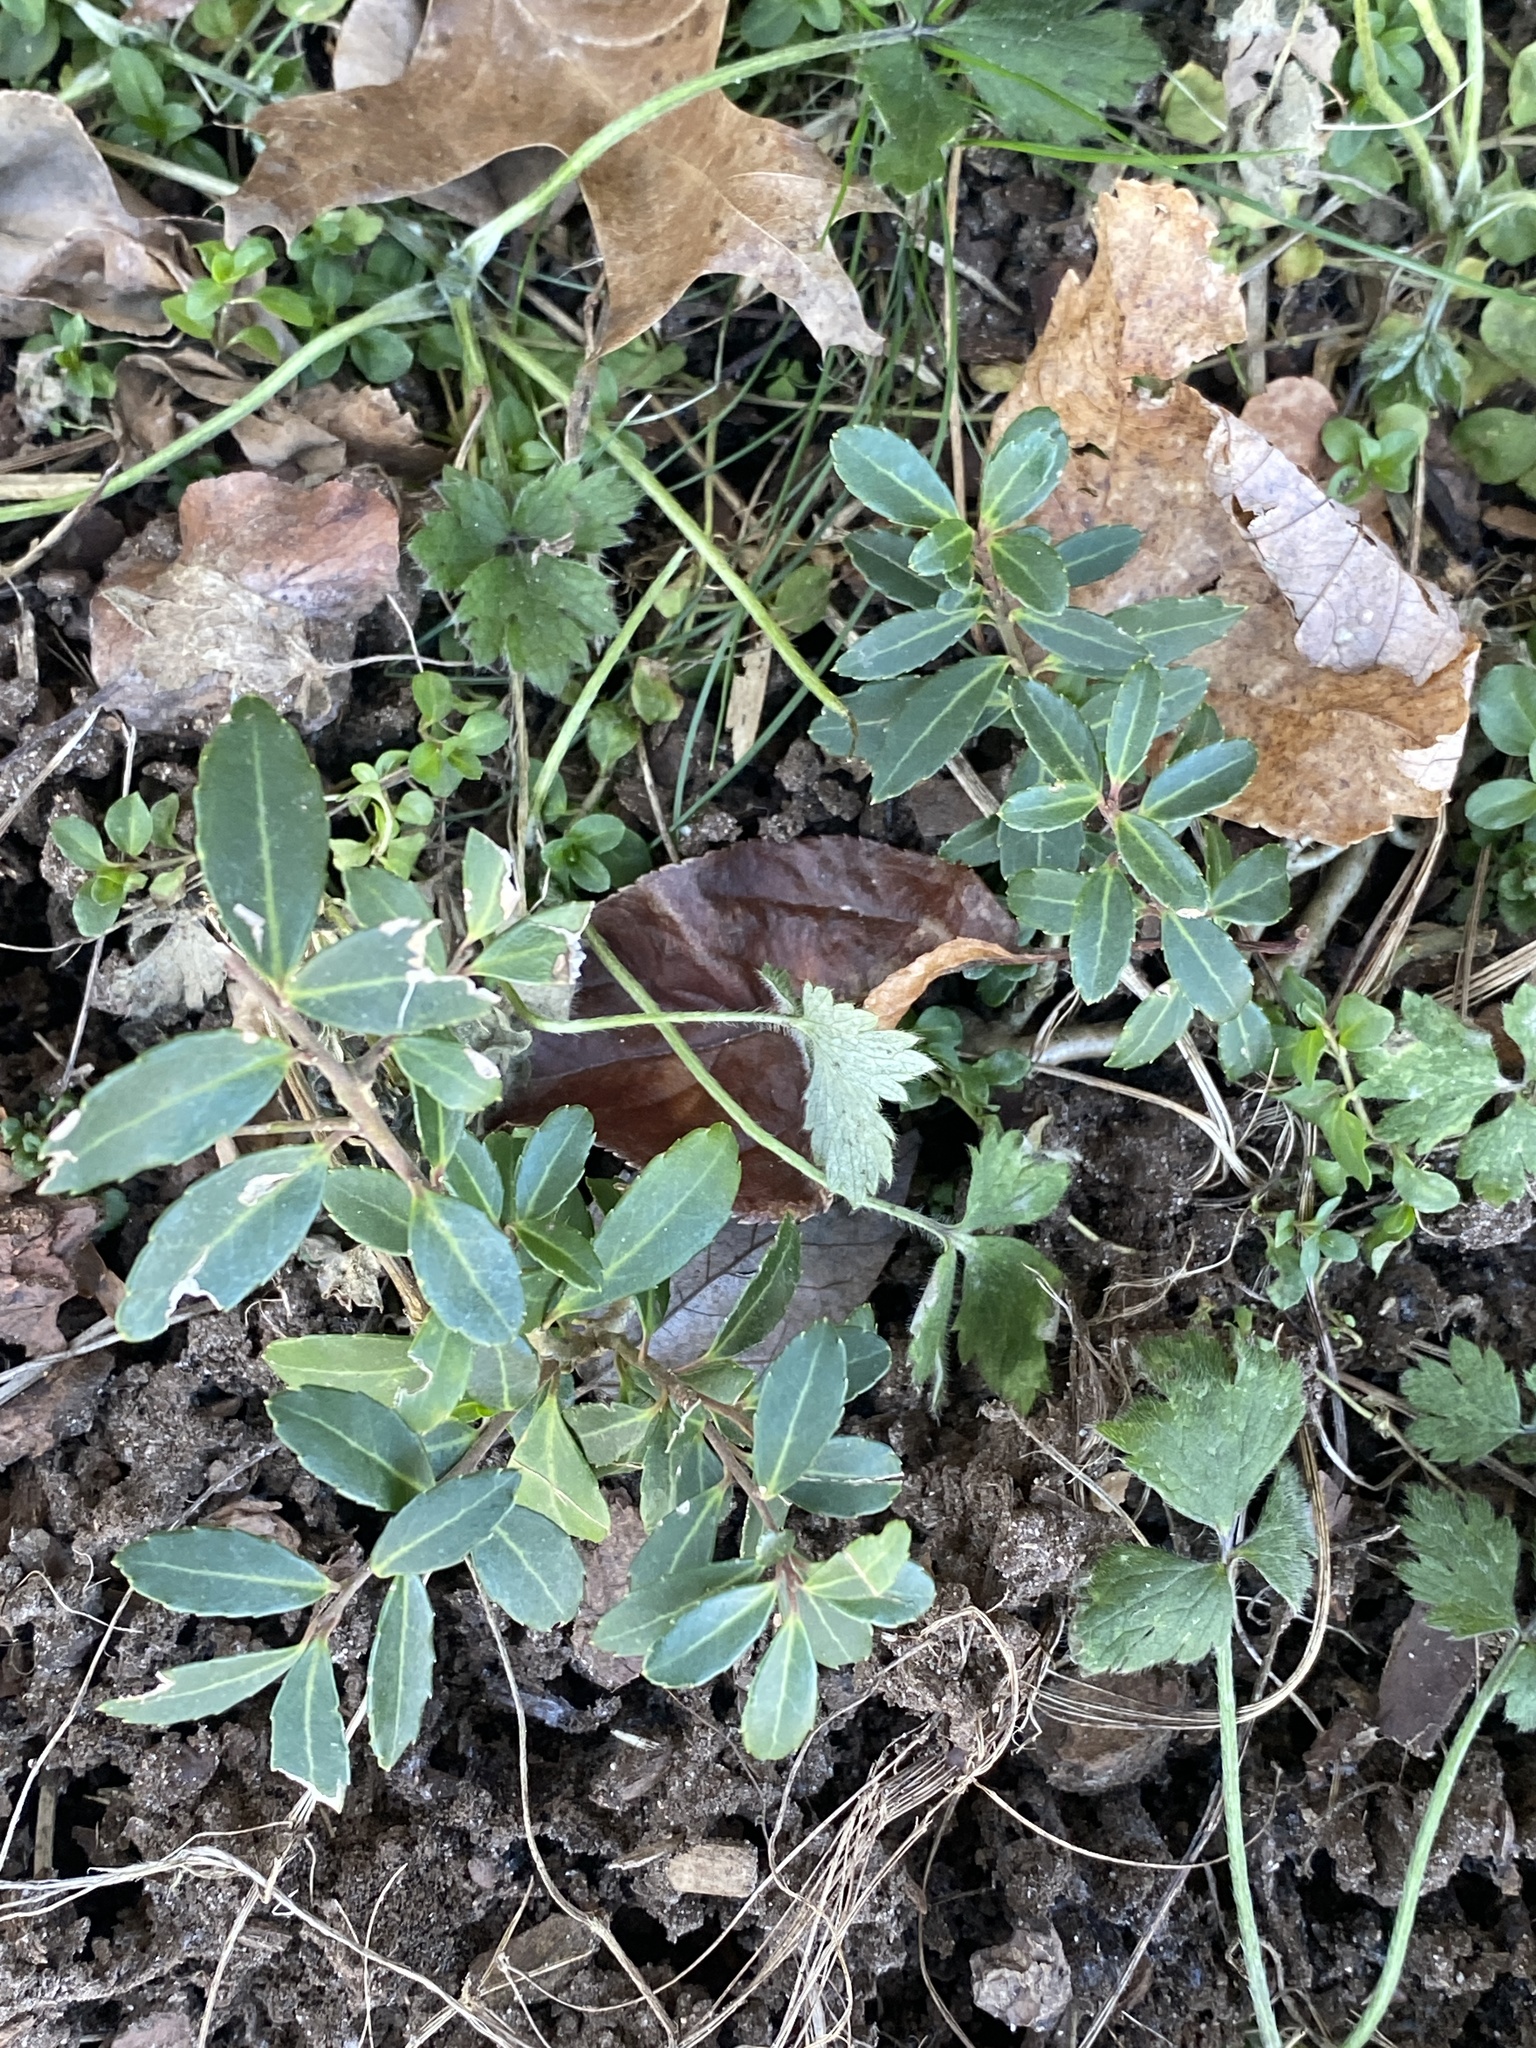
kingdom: Plantae
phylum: Tracheophyta
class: Magnoliopsida
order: Aquifoliales
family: Aquifoliaceae
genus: Ilex
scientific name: Ilex crenata
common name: Japanese holly
